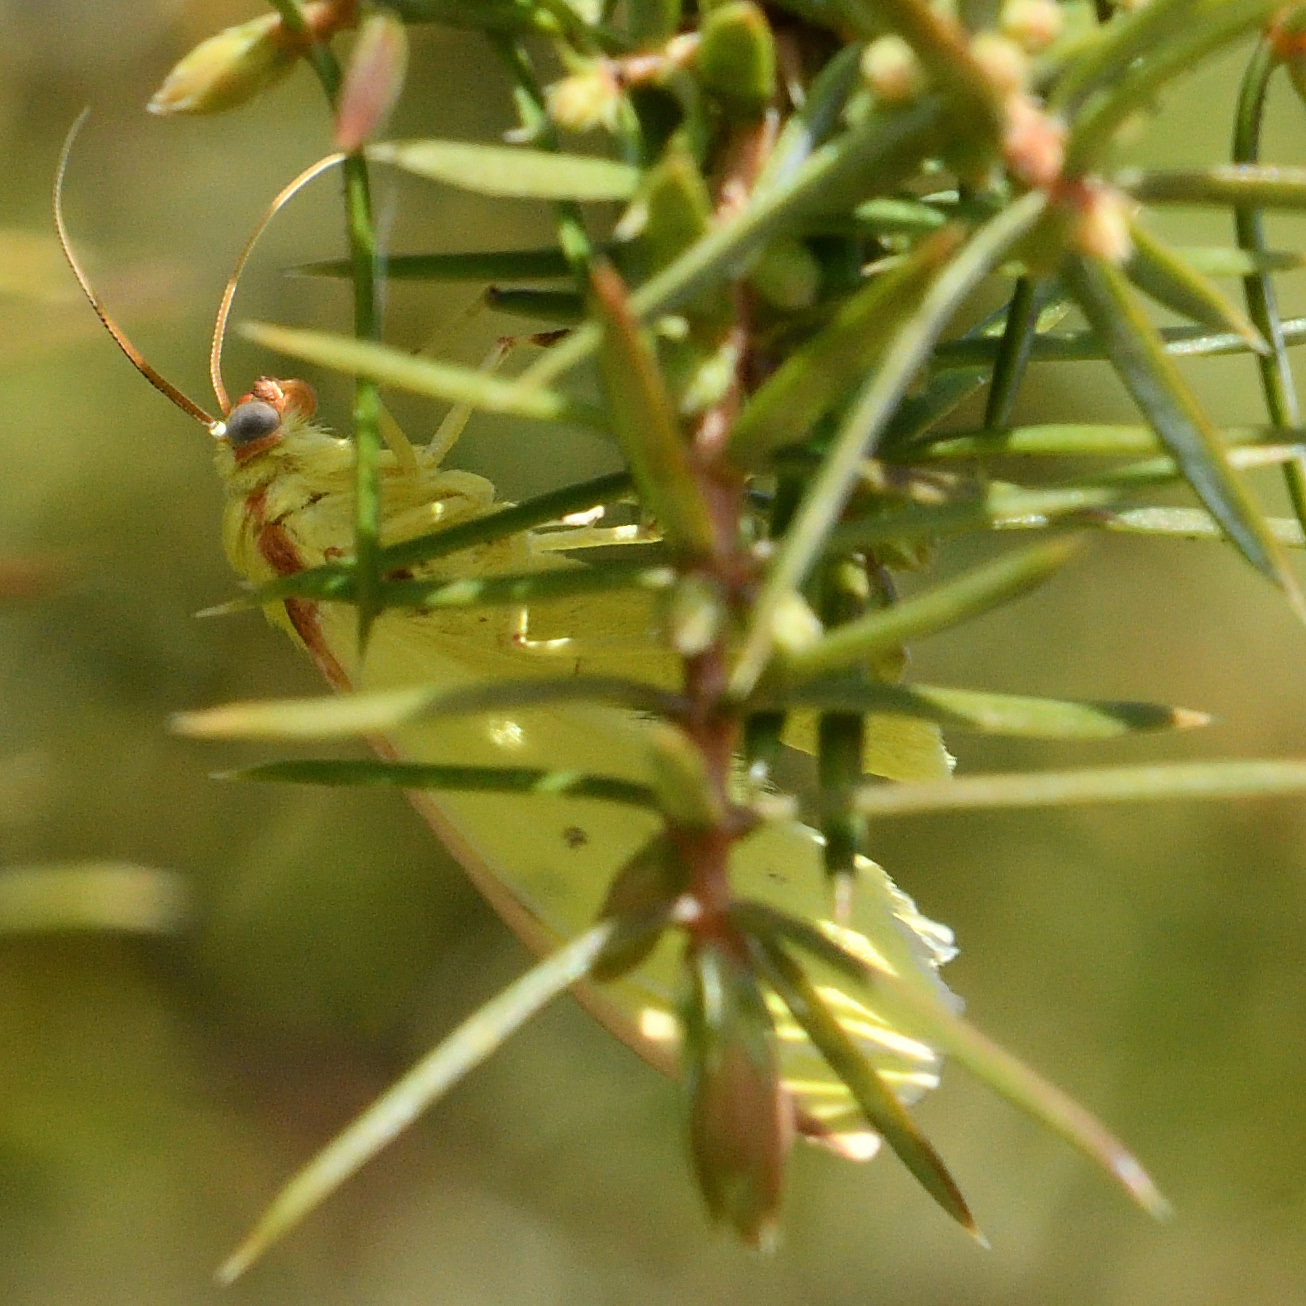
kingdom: Animalia
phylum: Arthropoda
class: Insecta
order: Lepidoptera
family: Geometridae
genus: Opisthograptis
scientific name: Opisthograptis luteolata
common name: Brimstone moth
